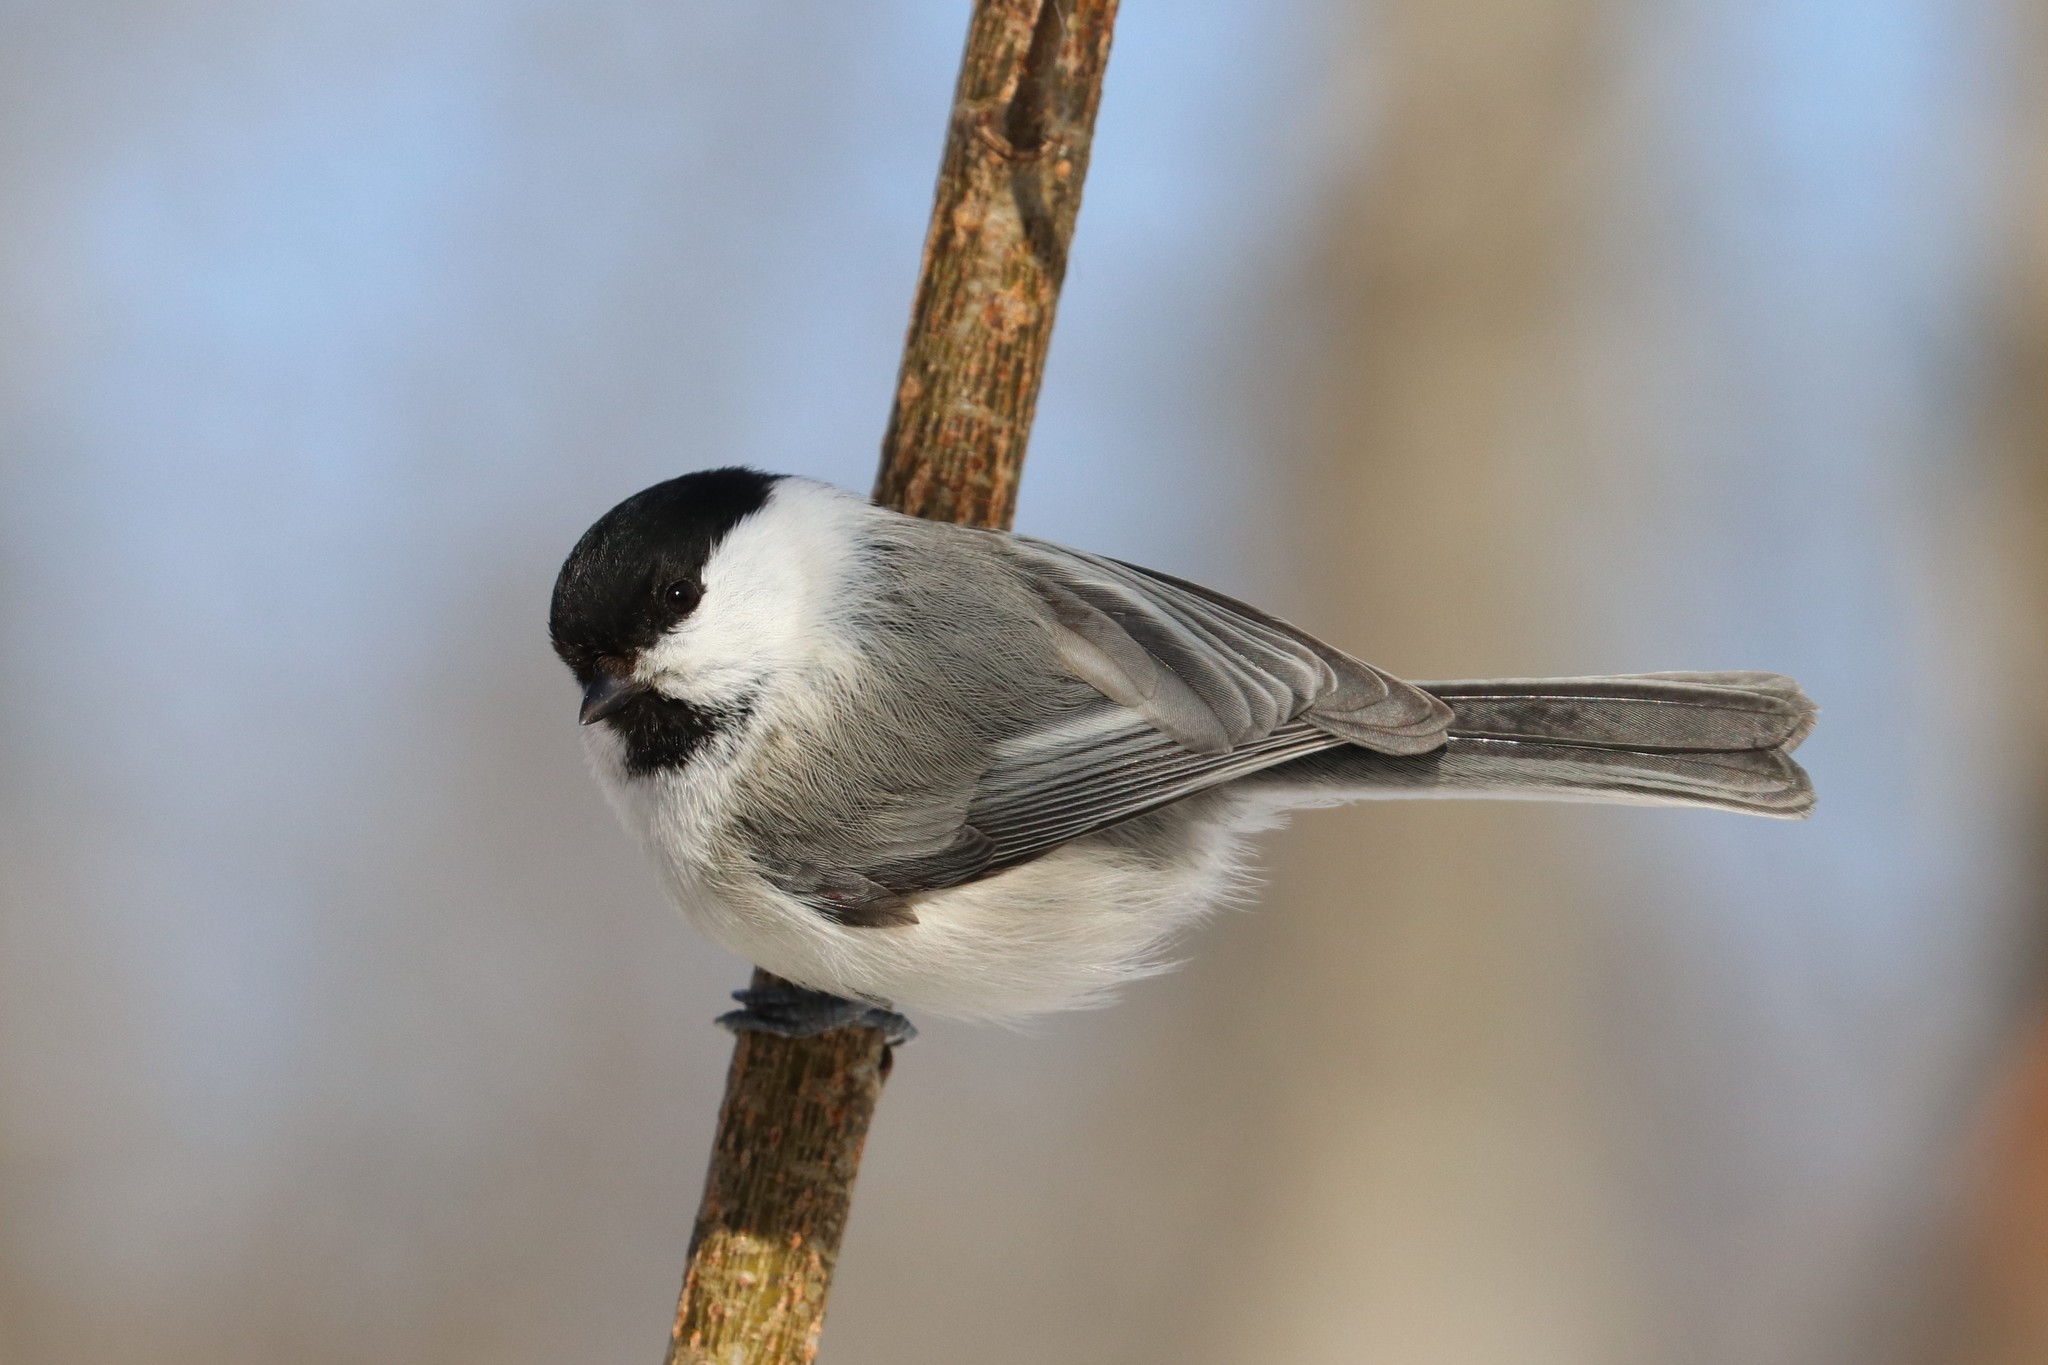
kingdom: Animalia
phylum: Chordata
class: Aves
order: Passeriformes
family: Paridae
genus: Poecile
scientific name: Poecile montanus
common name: Willow tit
